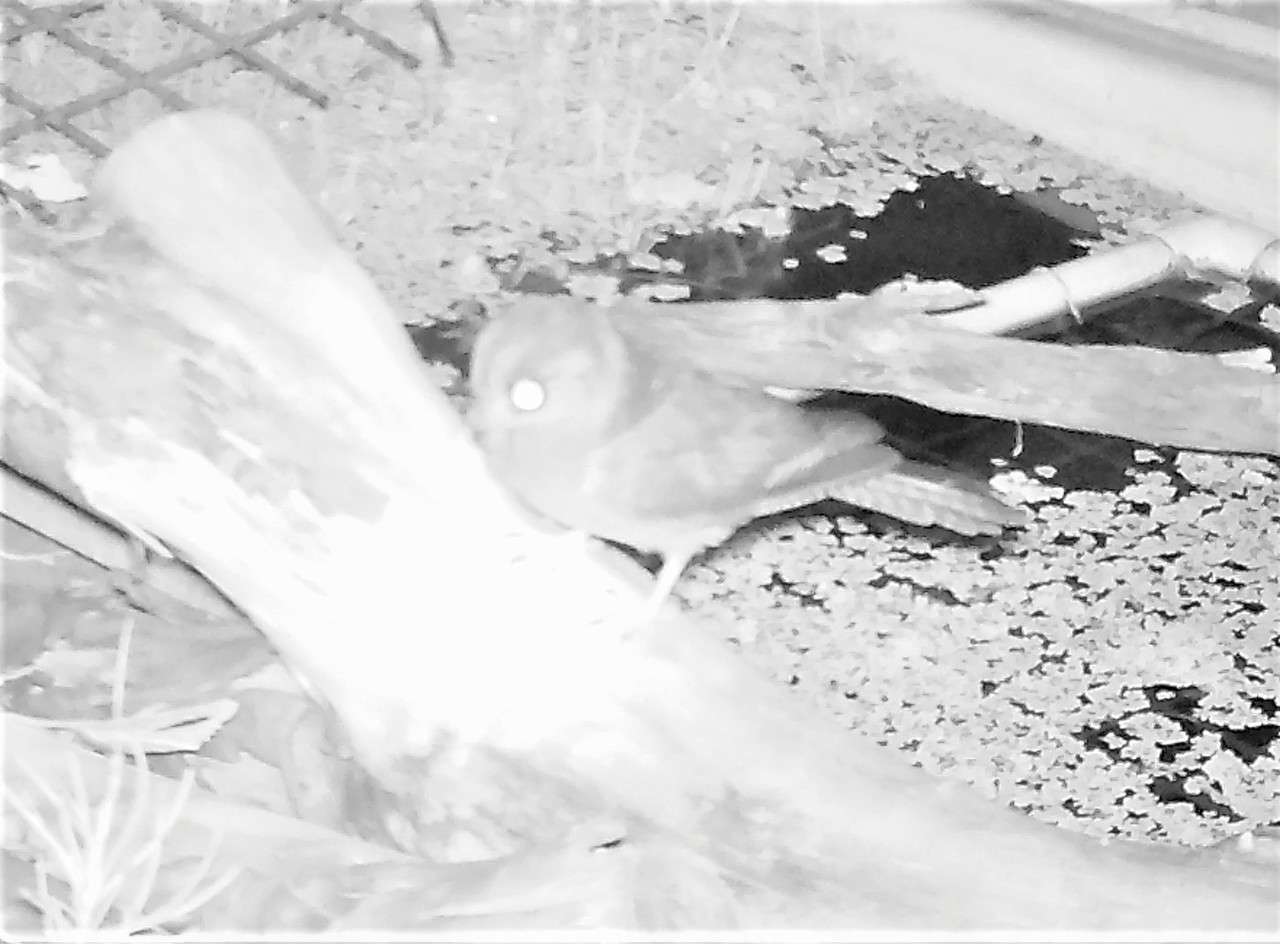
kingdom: Animalia
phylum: Chordata
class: Aves
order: Apodiformes
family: Aegothelidae
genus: Aegotheles
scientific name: Aegotheles cristatus
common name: Australian owlet-nightjar
